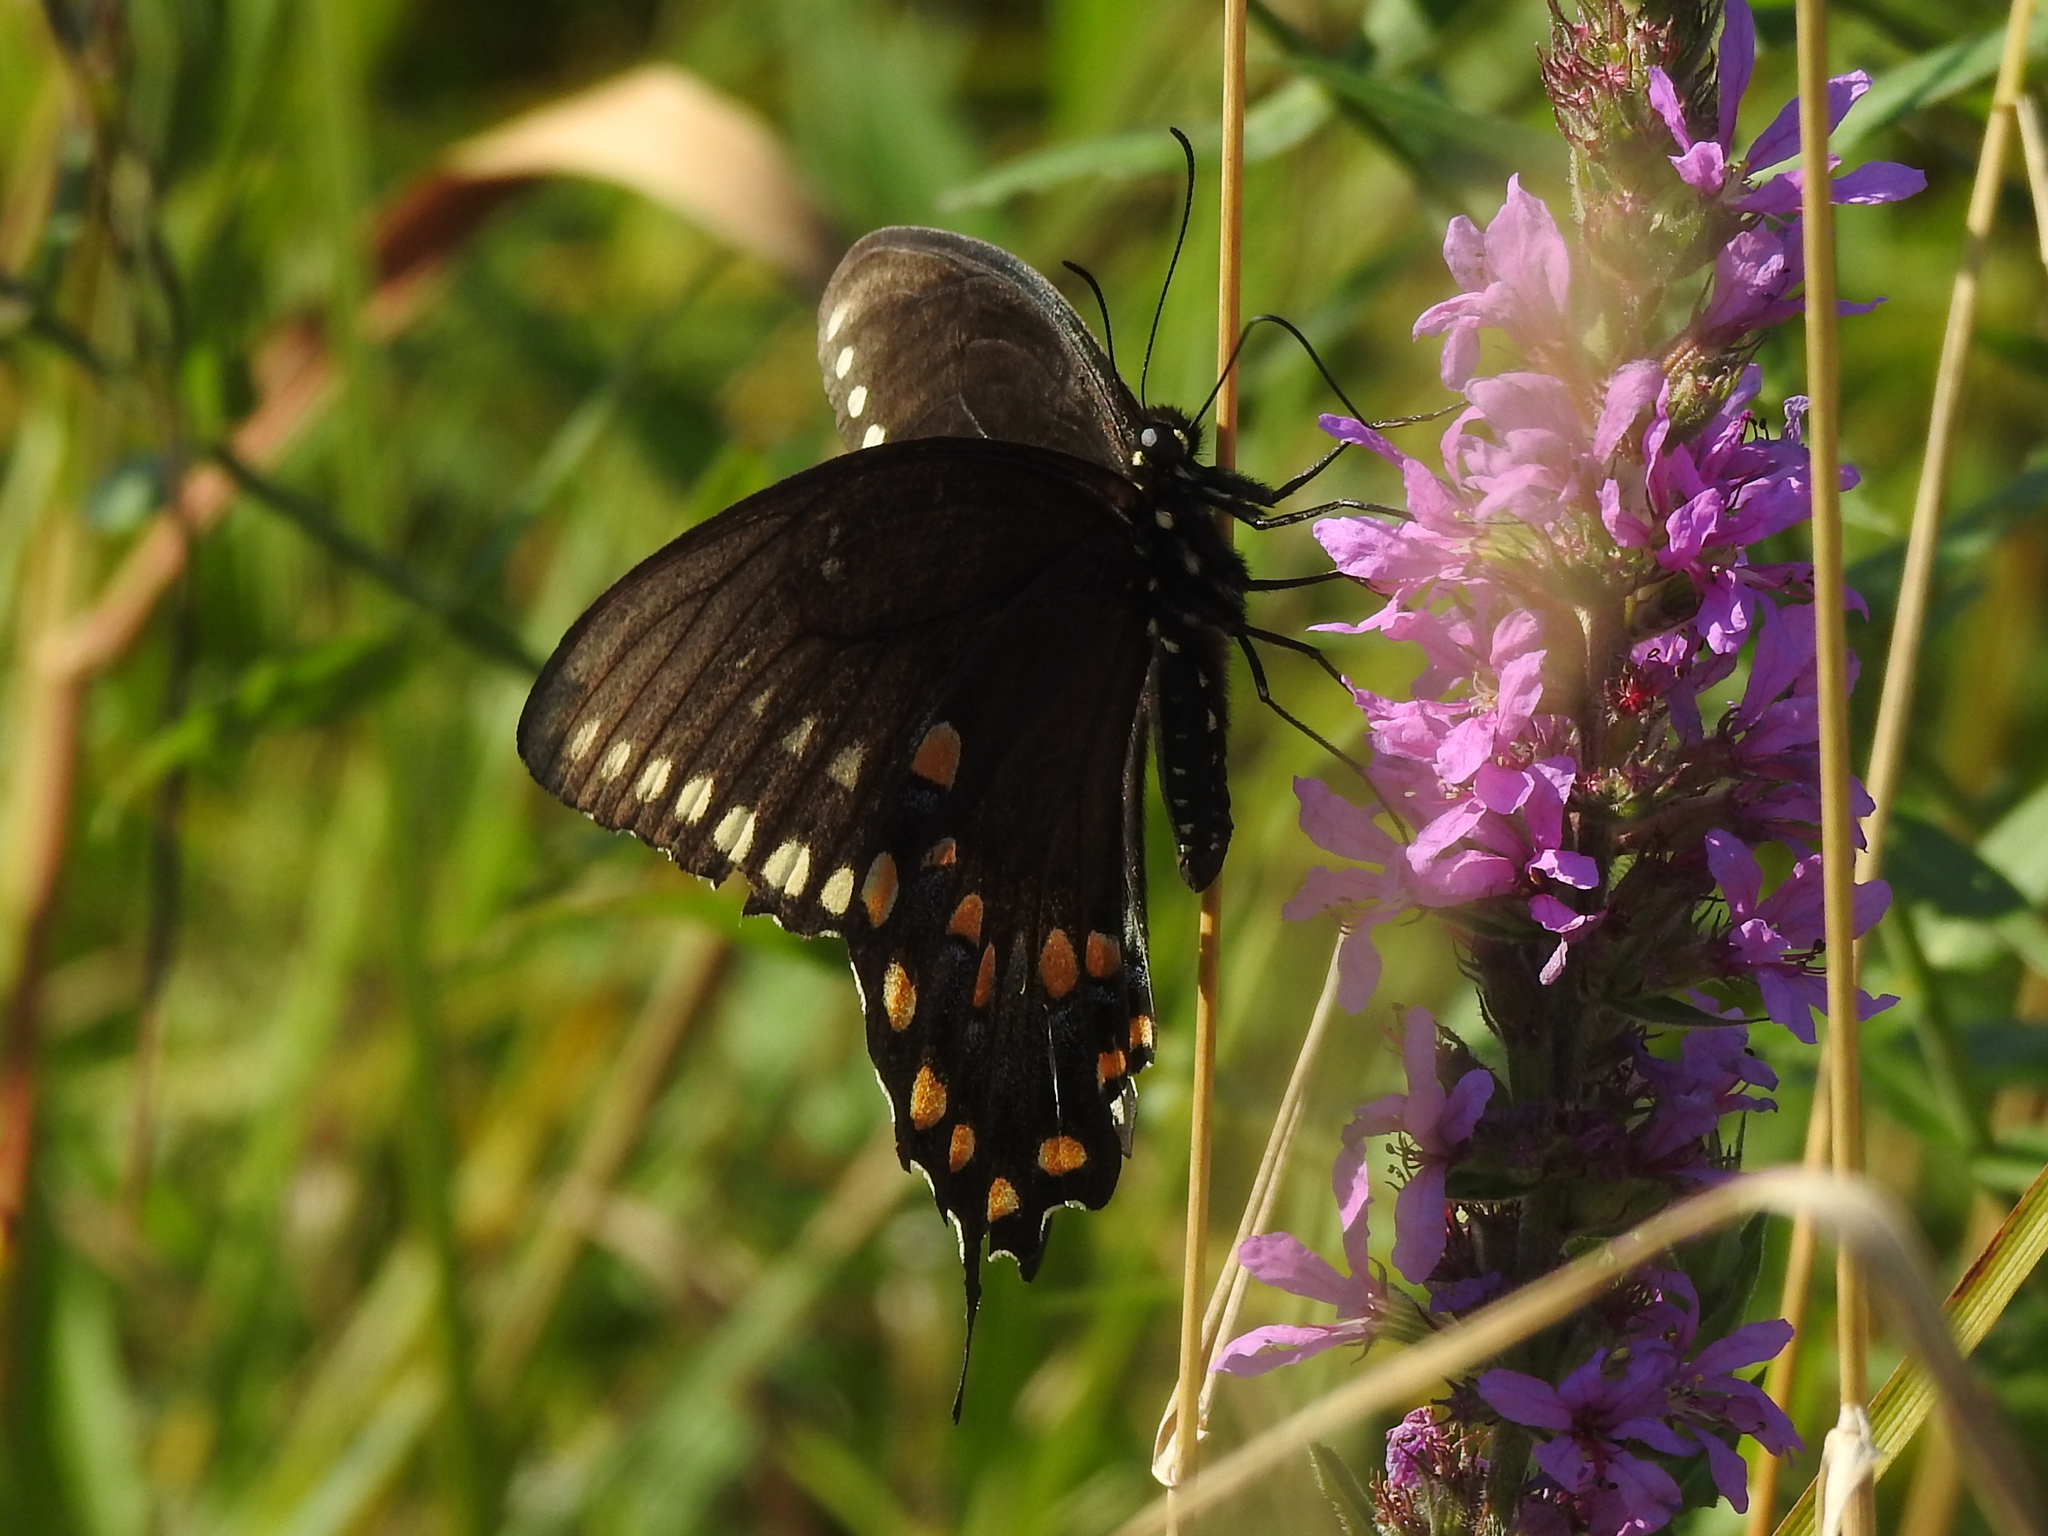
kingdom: Animalia
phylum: Arthropoda
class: Insecta
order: Lepidoptera
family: Papilionidae
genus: Papilio
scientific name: Papilio troilus
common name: Spicebush swallowtail
